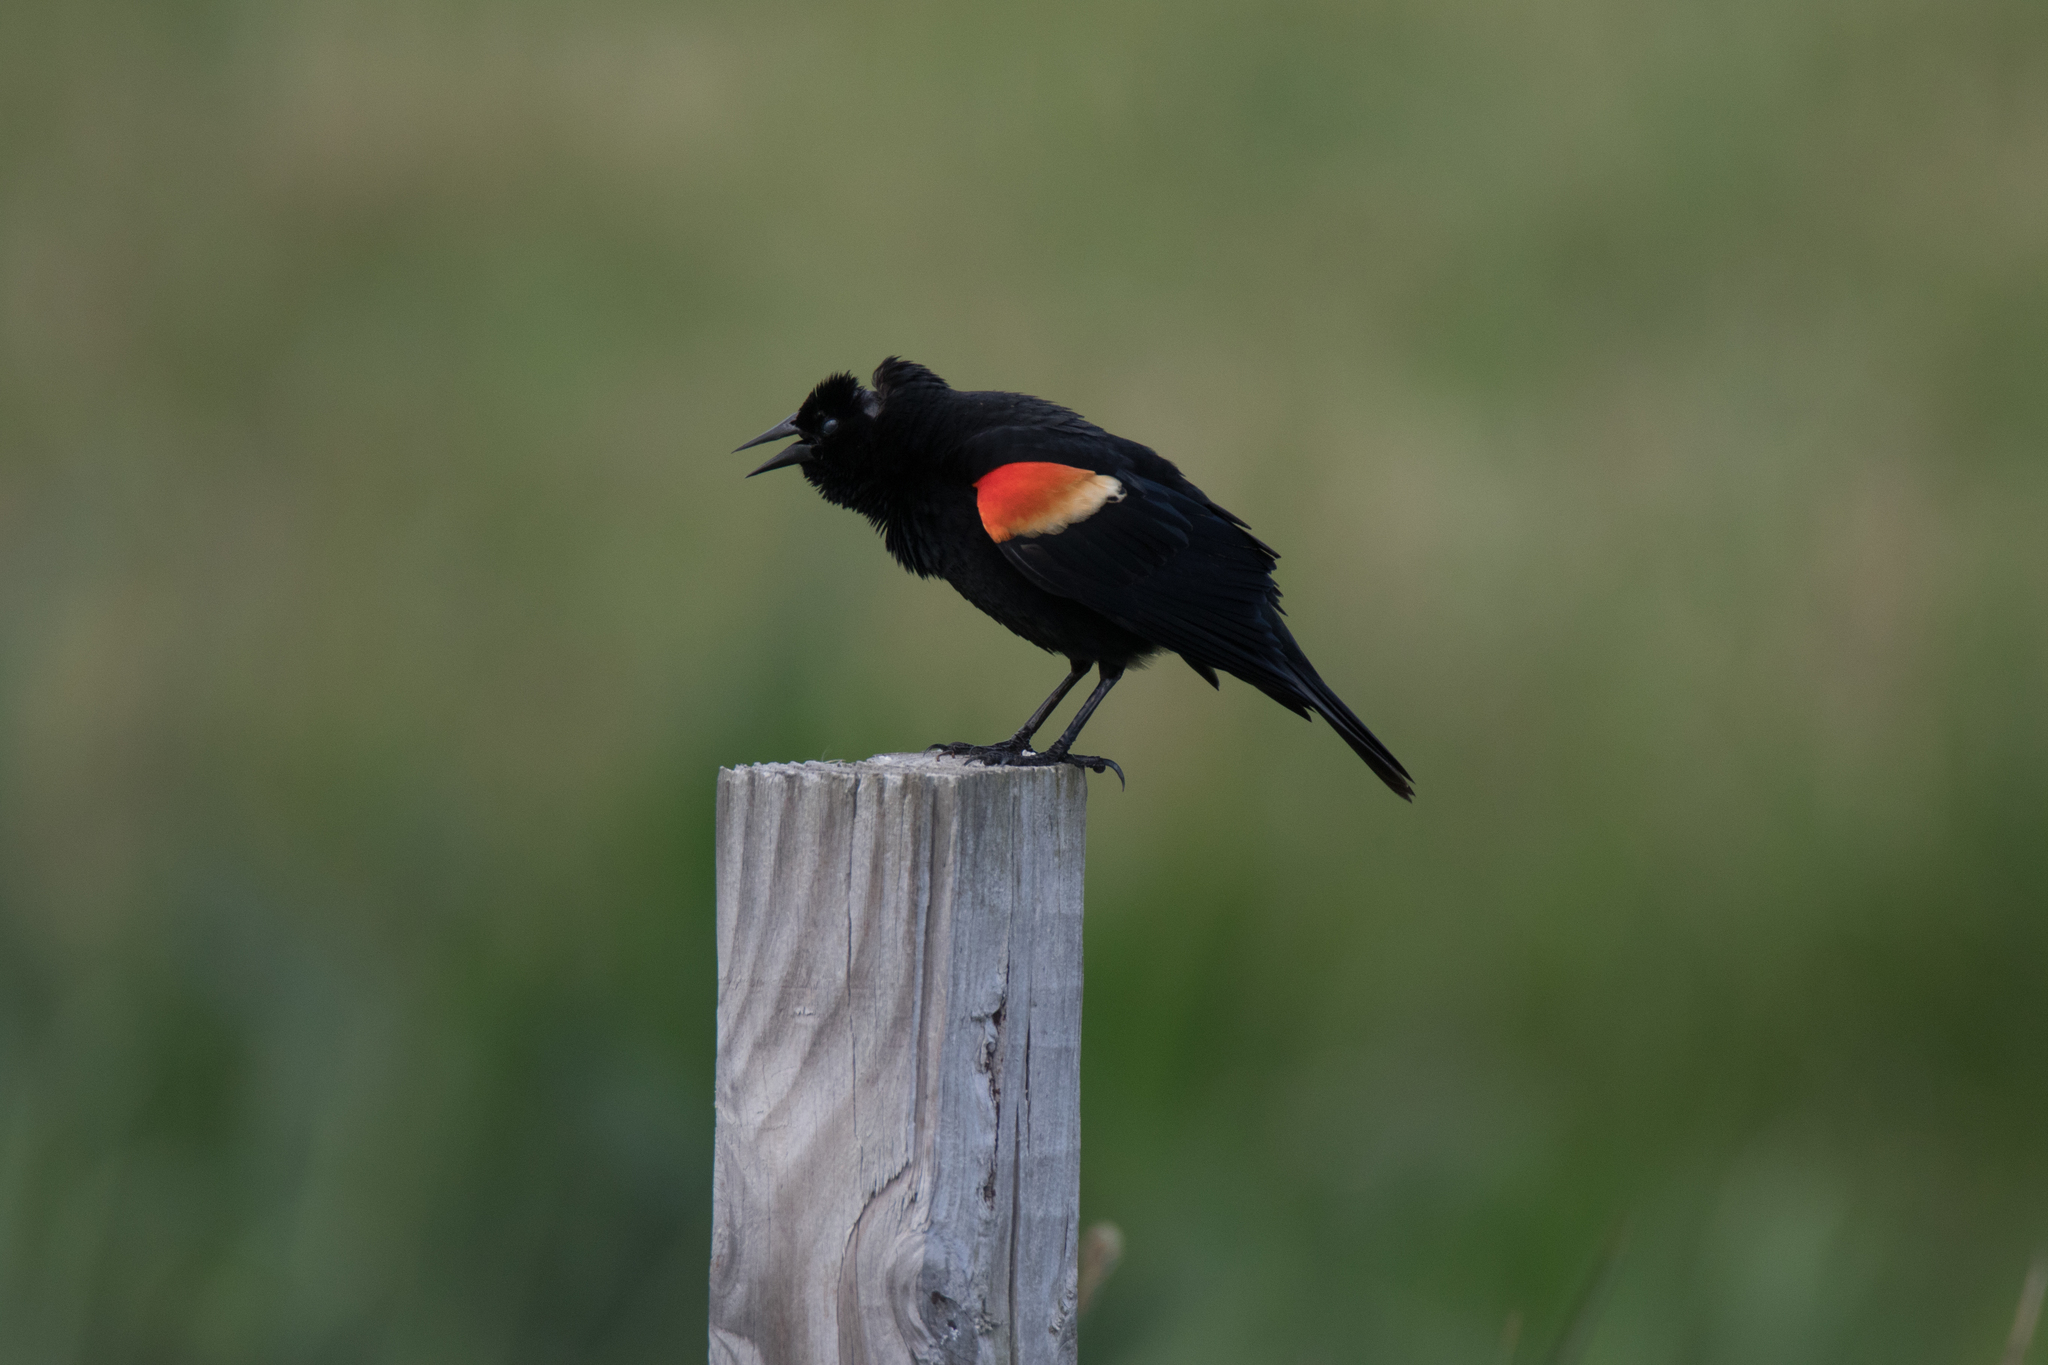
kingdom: Animalia
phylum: Chordata
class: Aves
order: Passeriformes
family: Icteridae
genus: Agelaius
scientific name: Agelaius phoeniceus
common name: Red-winged blackbird
